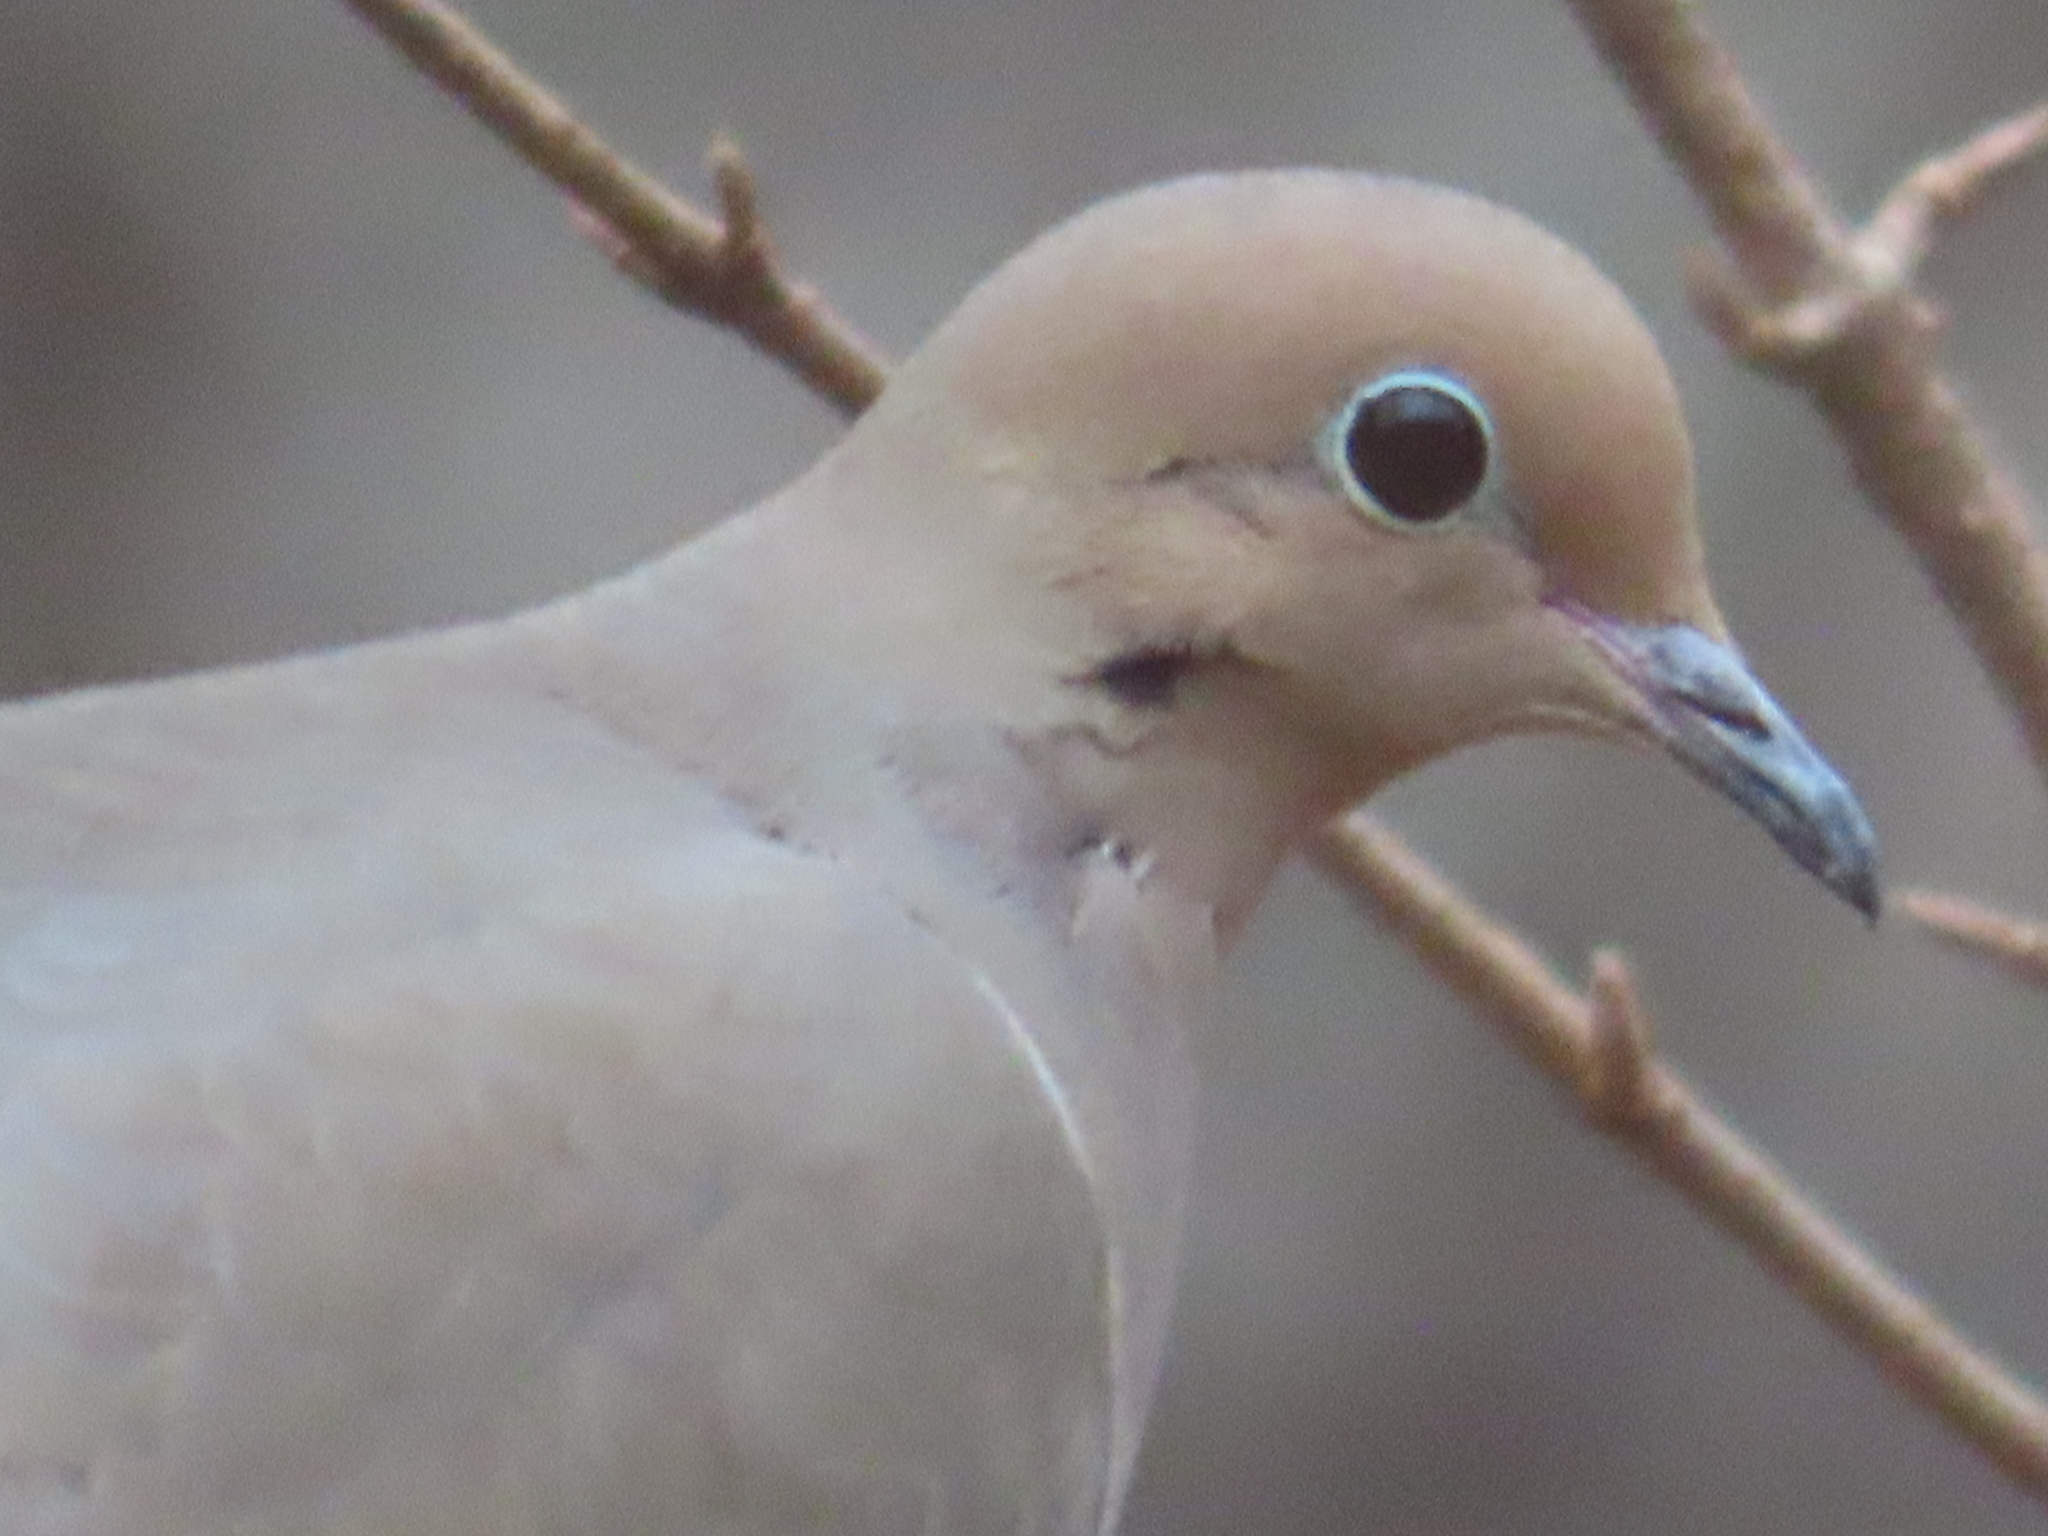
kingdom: Animalia
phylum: Chordata
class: Aves
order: Columbiformes
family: Columbidae
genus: Zenaida
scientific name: Zenaida macroura
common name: Mourning dove
